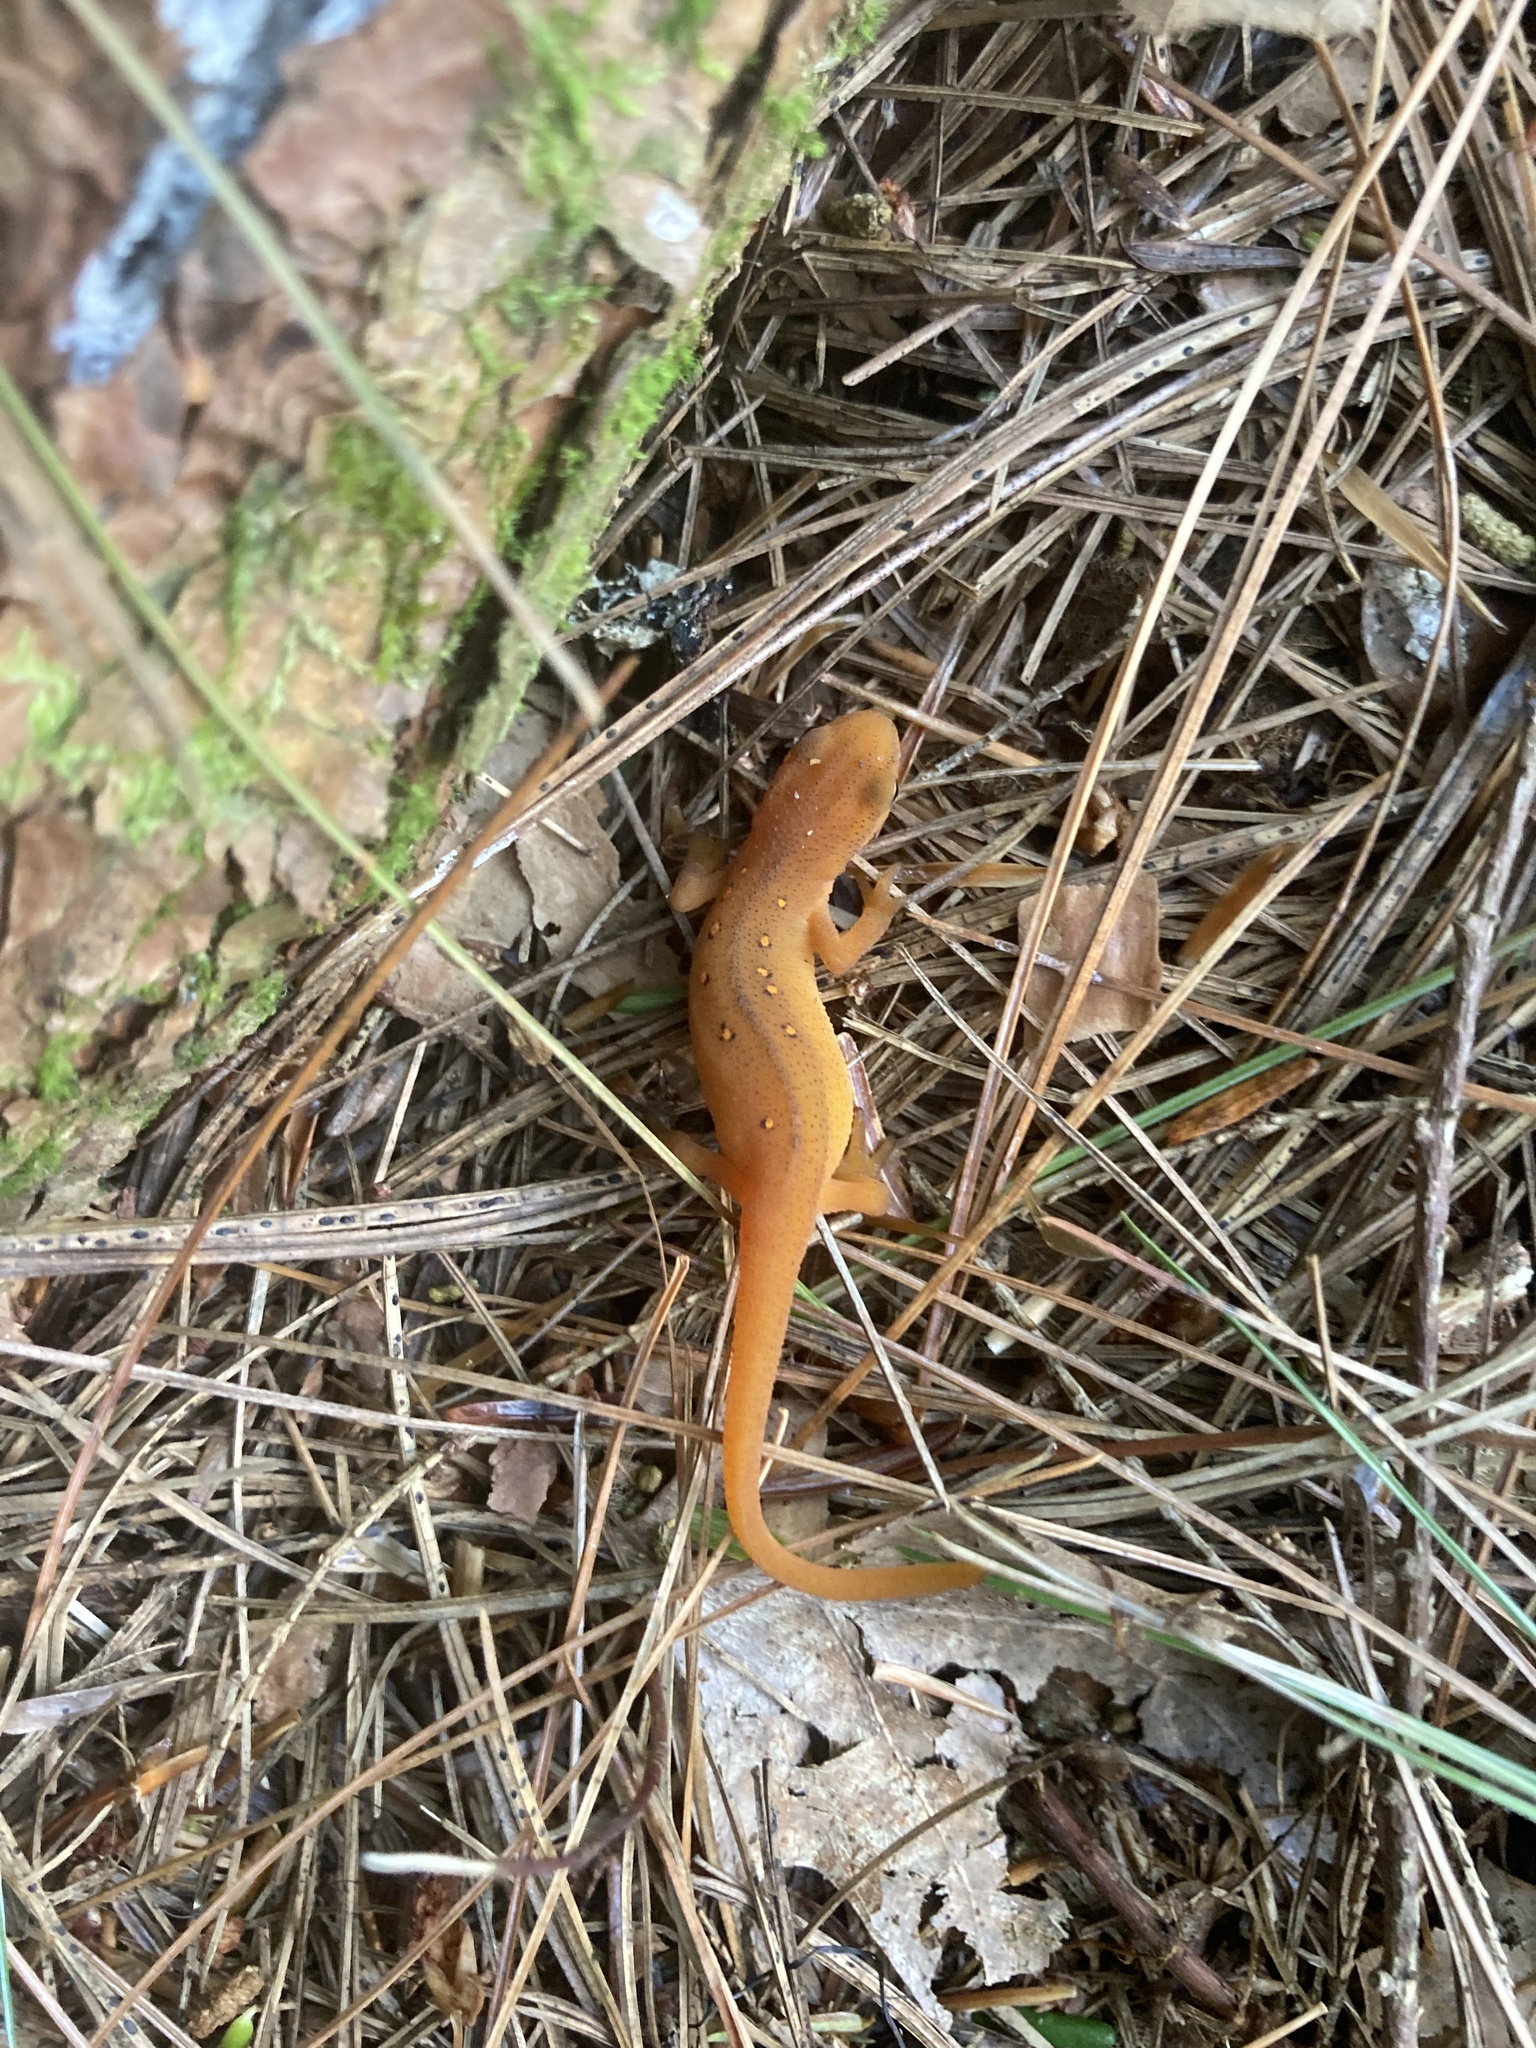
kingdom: Animalia
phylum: Chordata
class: Amphibia
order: Caudata
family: Salamandridae
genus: Notophthalmus
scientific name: Notophthalmus viridescens
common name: Eastern newt
